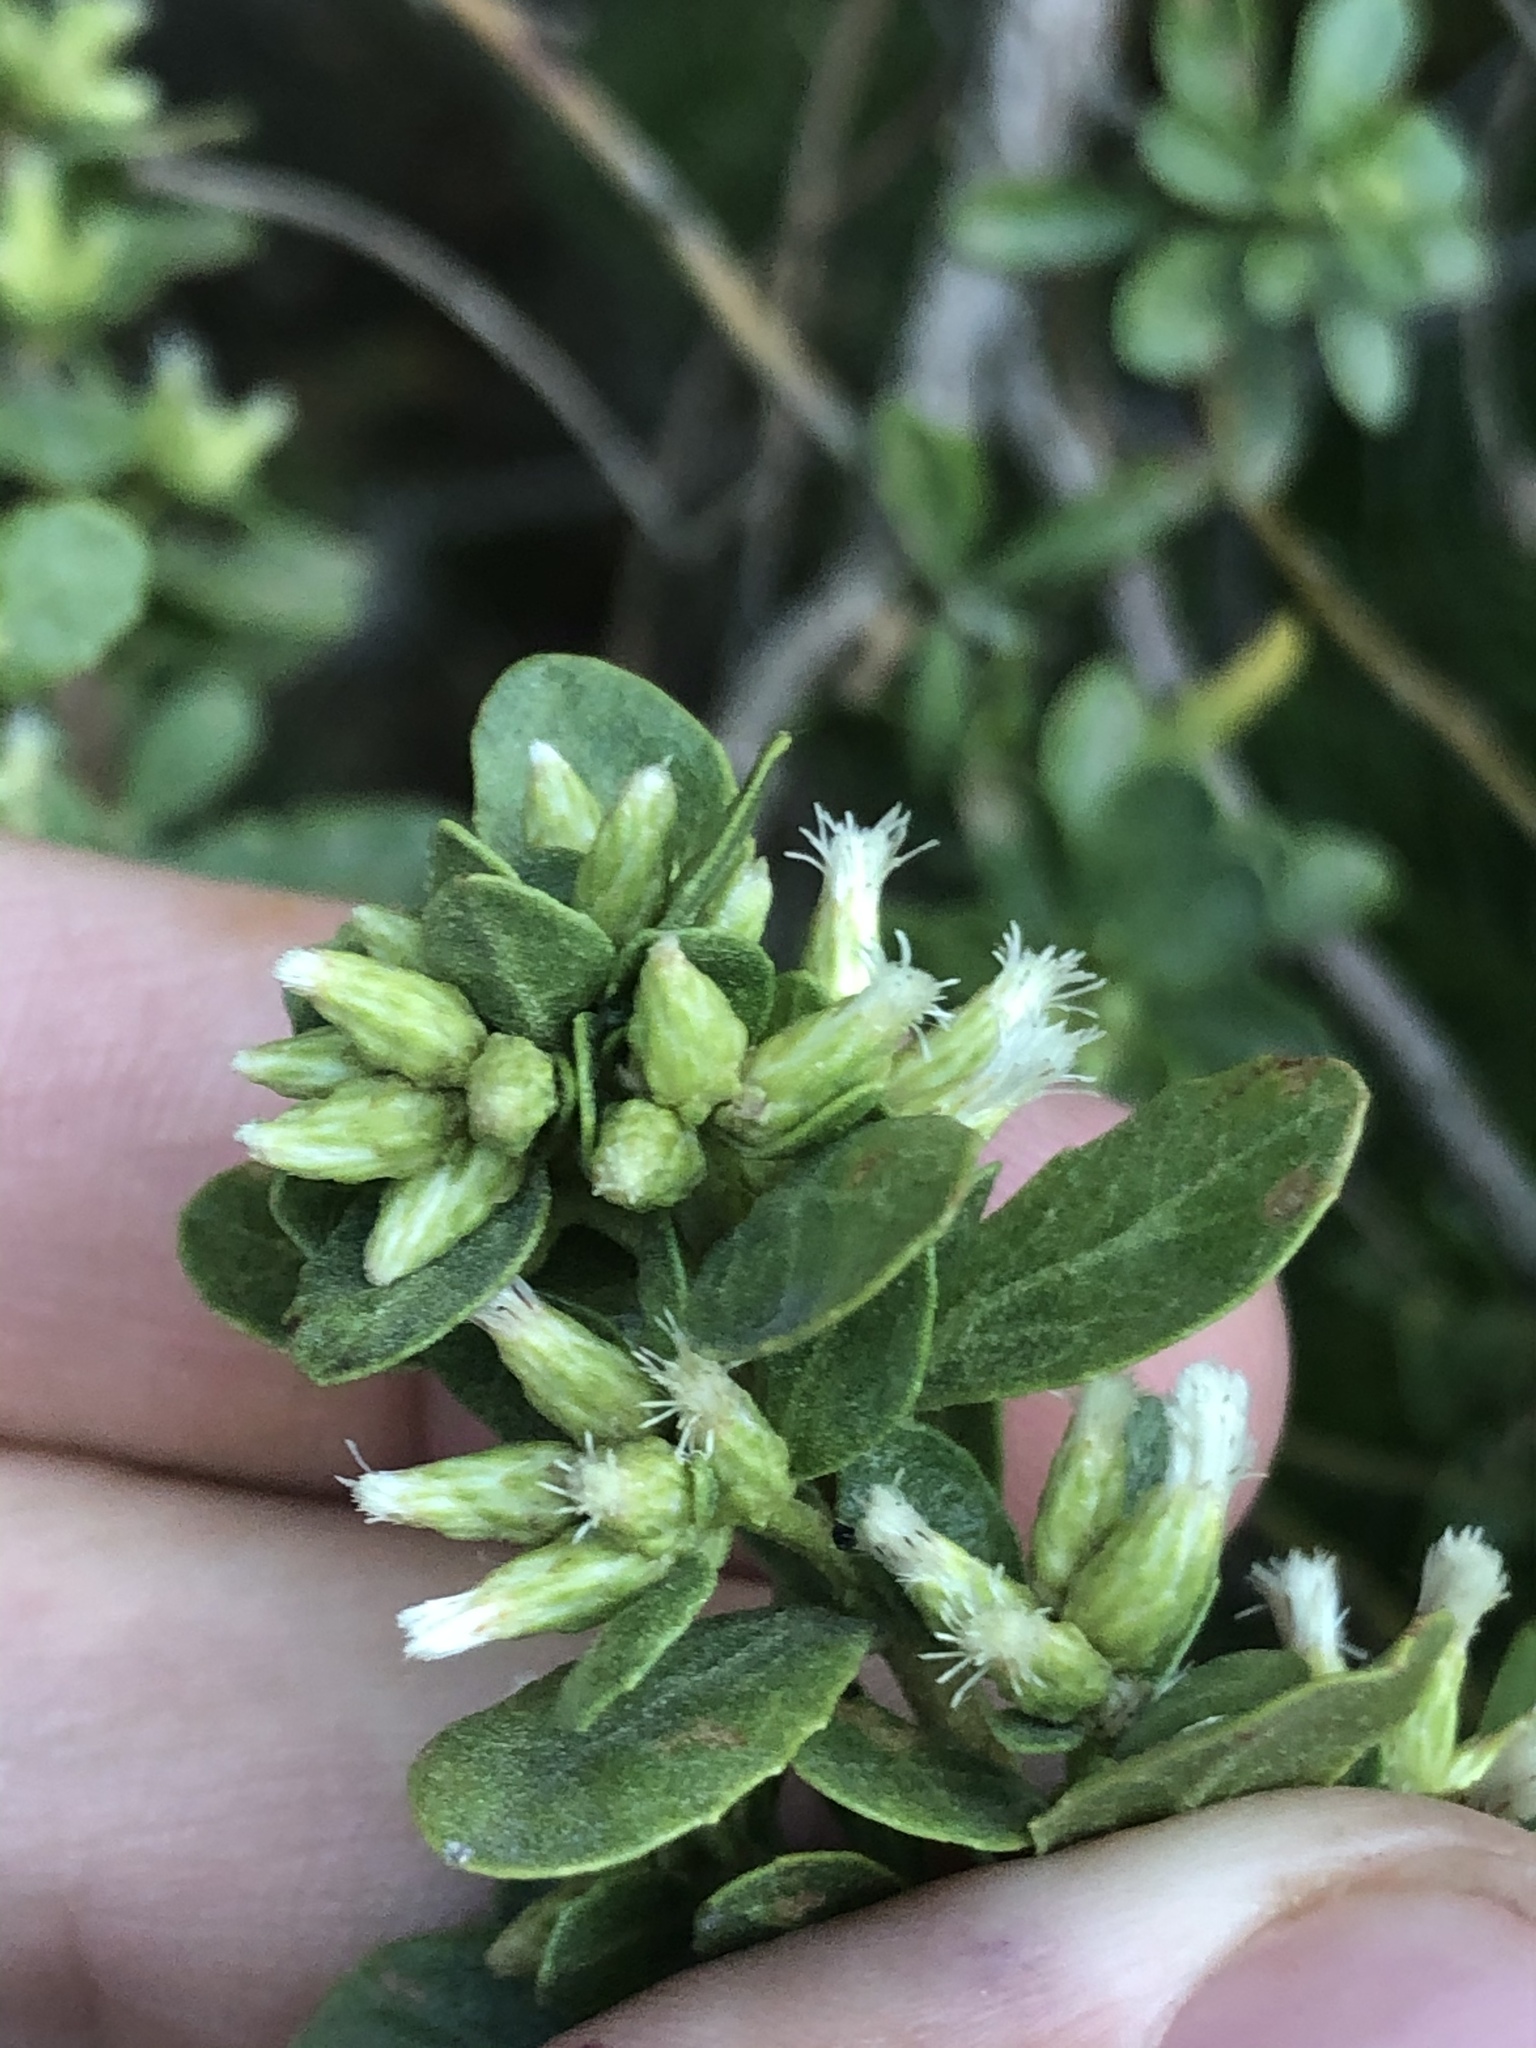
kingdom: Plantae
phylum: Tracheophyta
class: Magnoliopsida
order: Asterales
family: Asteraceae
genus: Baccharis
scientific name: Baccharis pilularis
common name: Coyotebrush
